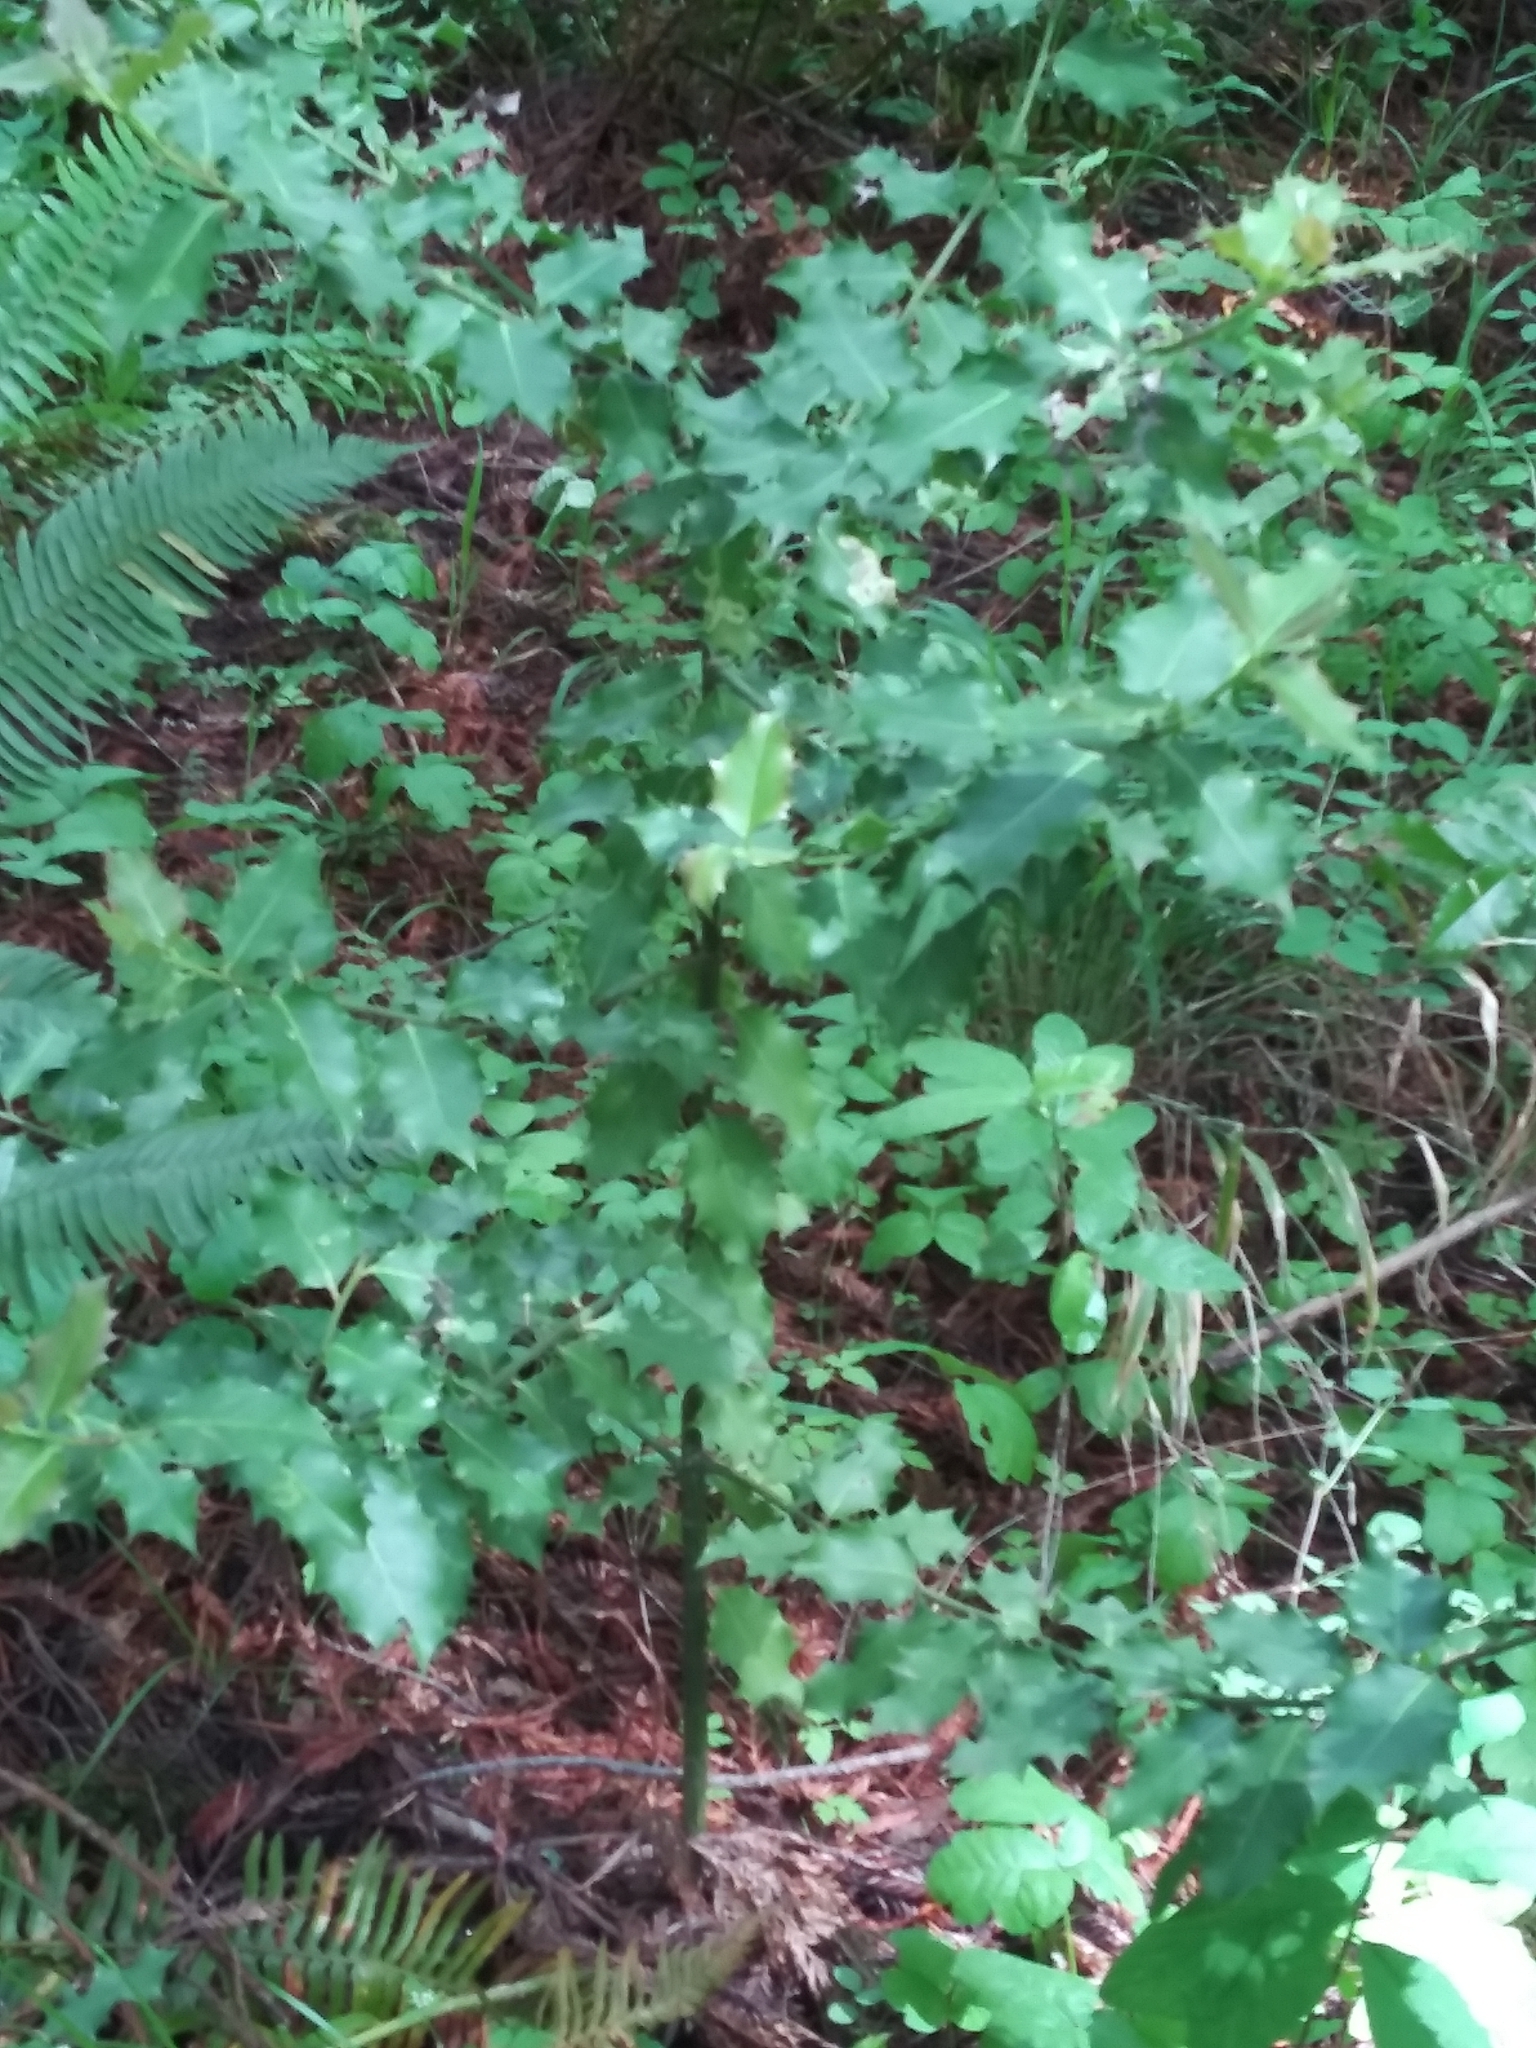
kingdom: Plantae
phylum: Tracheophyta
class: Magnoliopsida
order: Aquifoliales
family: Aquifoliaceae
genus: Ilex
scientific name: Ilex aquifolium
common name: English holly
